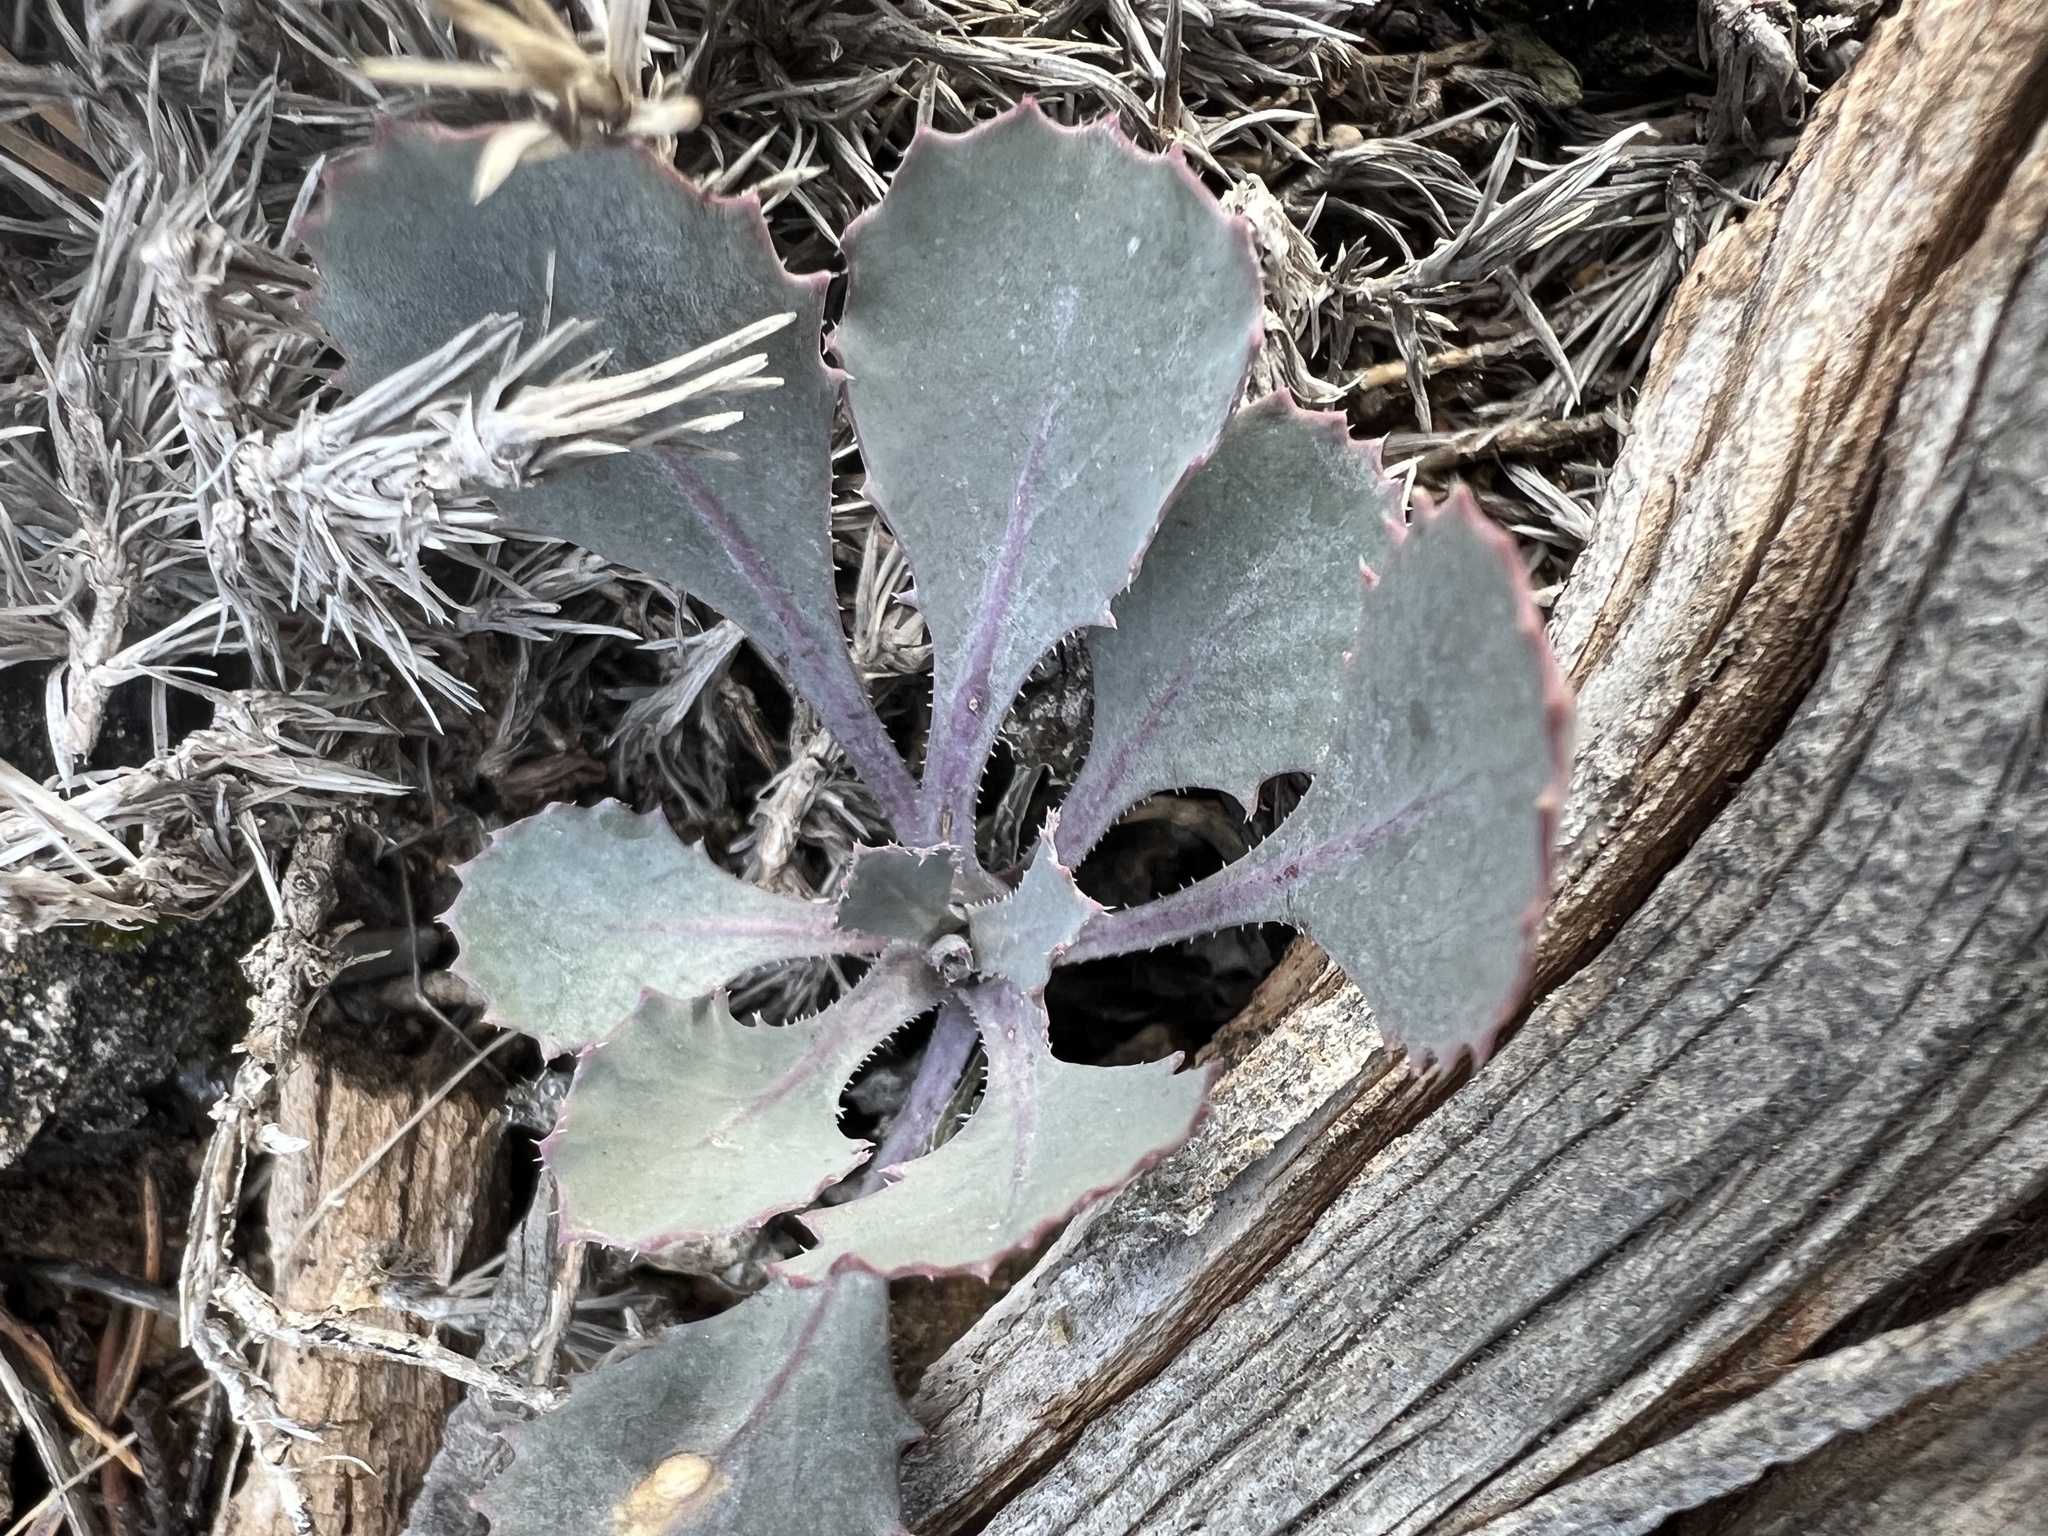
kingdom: Plantae
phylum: Tracheophyta
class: Magnoliopsida
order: Brassicales
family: Brassicaceae
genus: Streptanthus
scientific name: Streptanthus cordatus
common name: Heart-leaf jewel-flower
